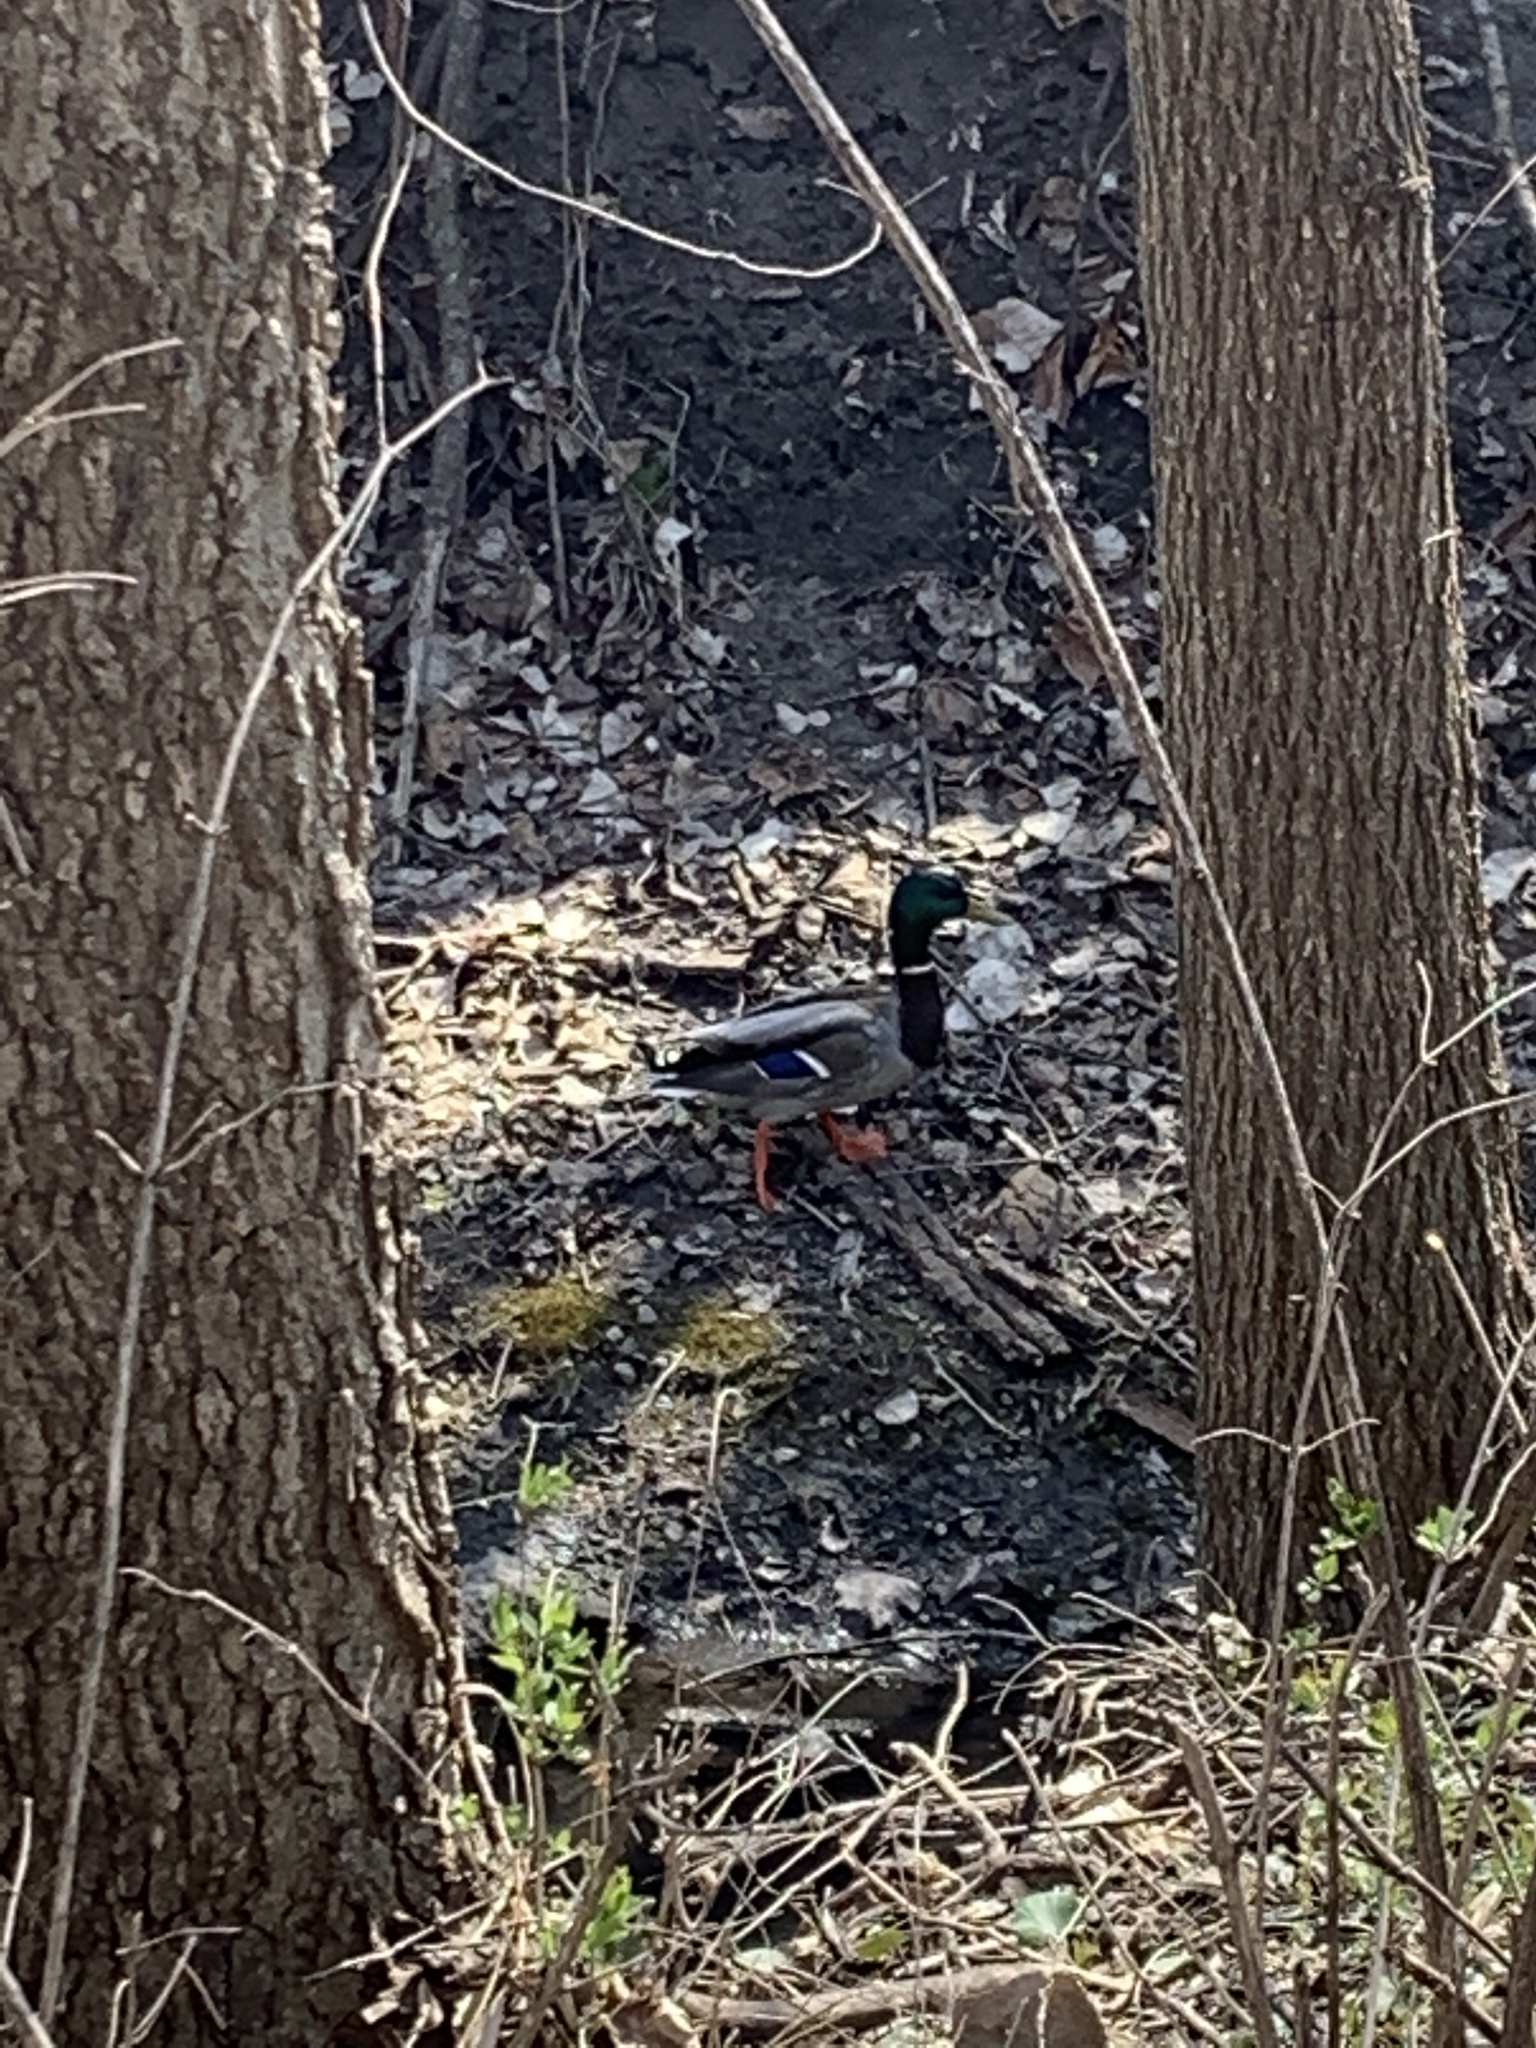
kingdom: Animalia
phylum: Chordata
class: Aves
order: Anseriformes
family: Anatidae
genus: Anas
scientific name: Anas platyrhynchos
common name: Mallard
